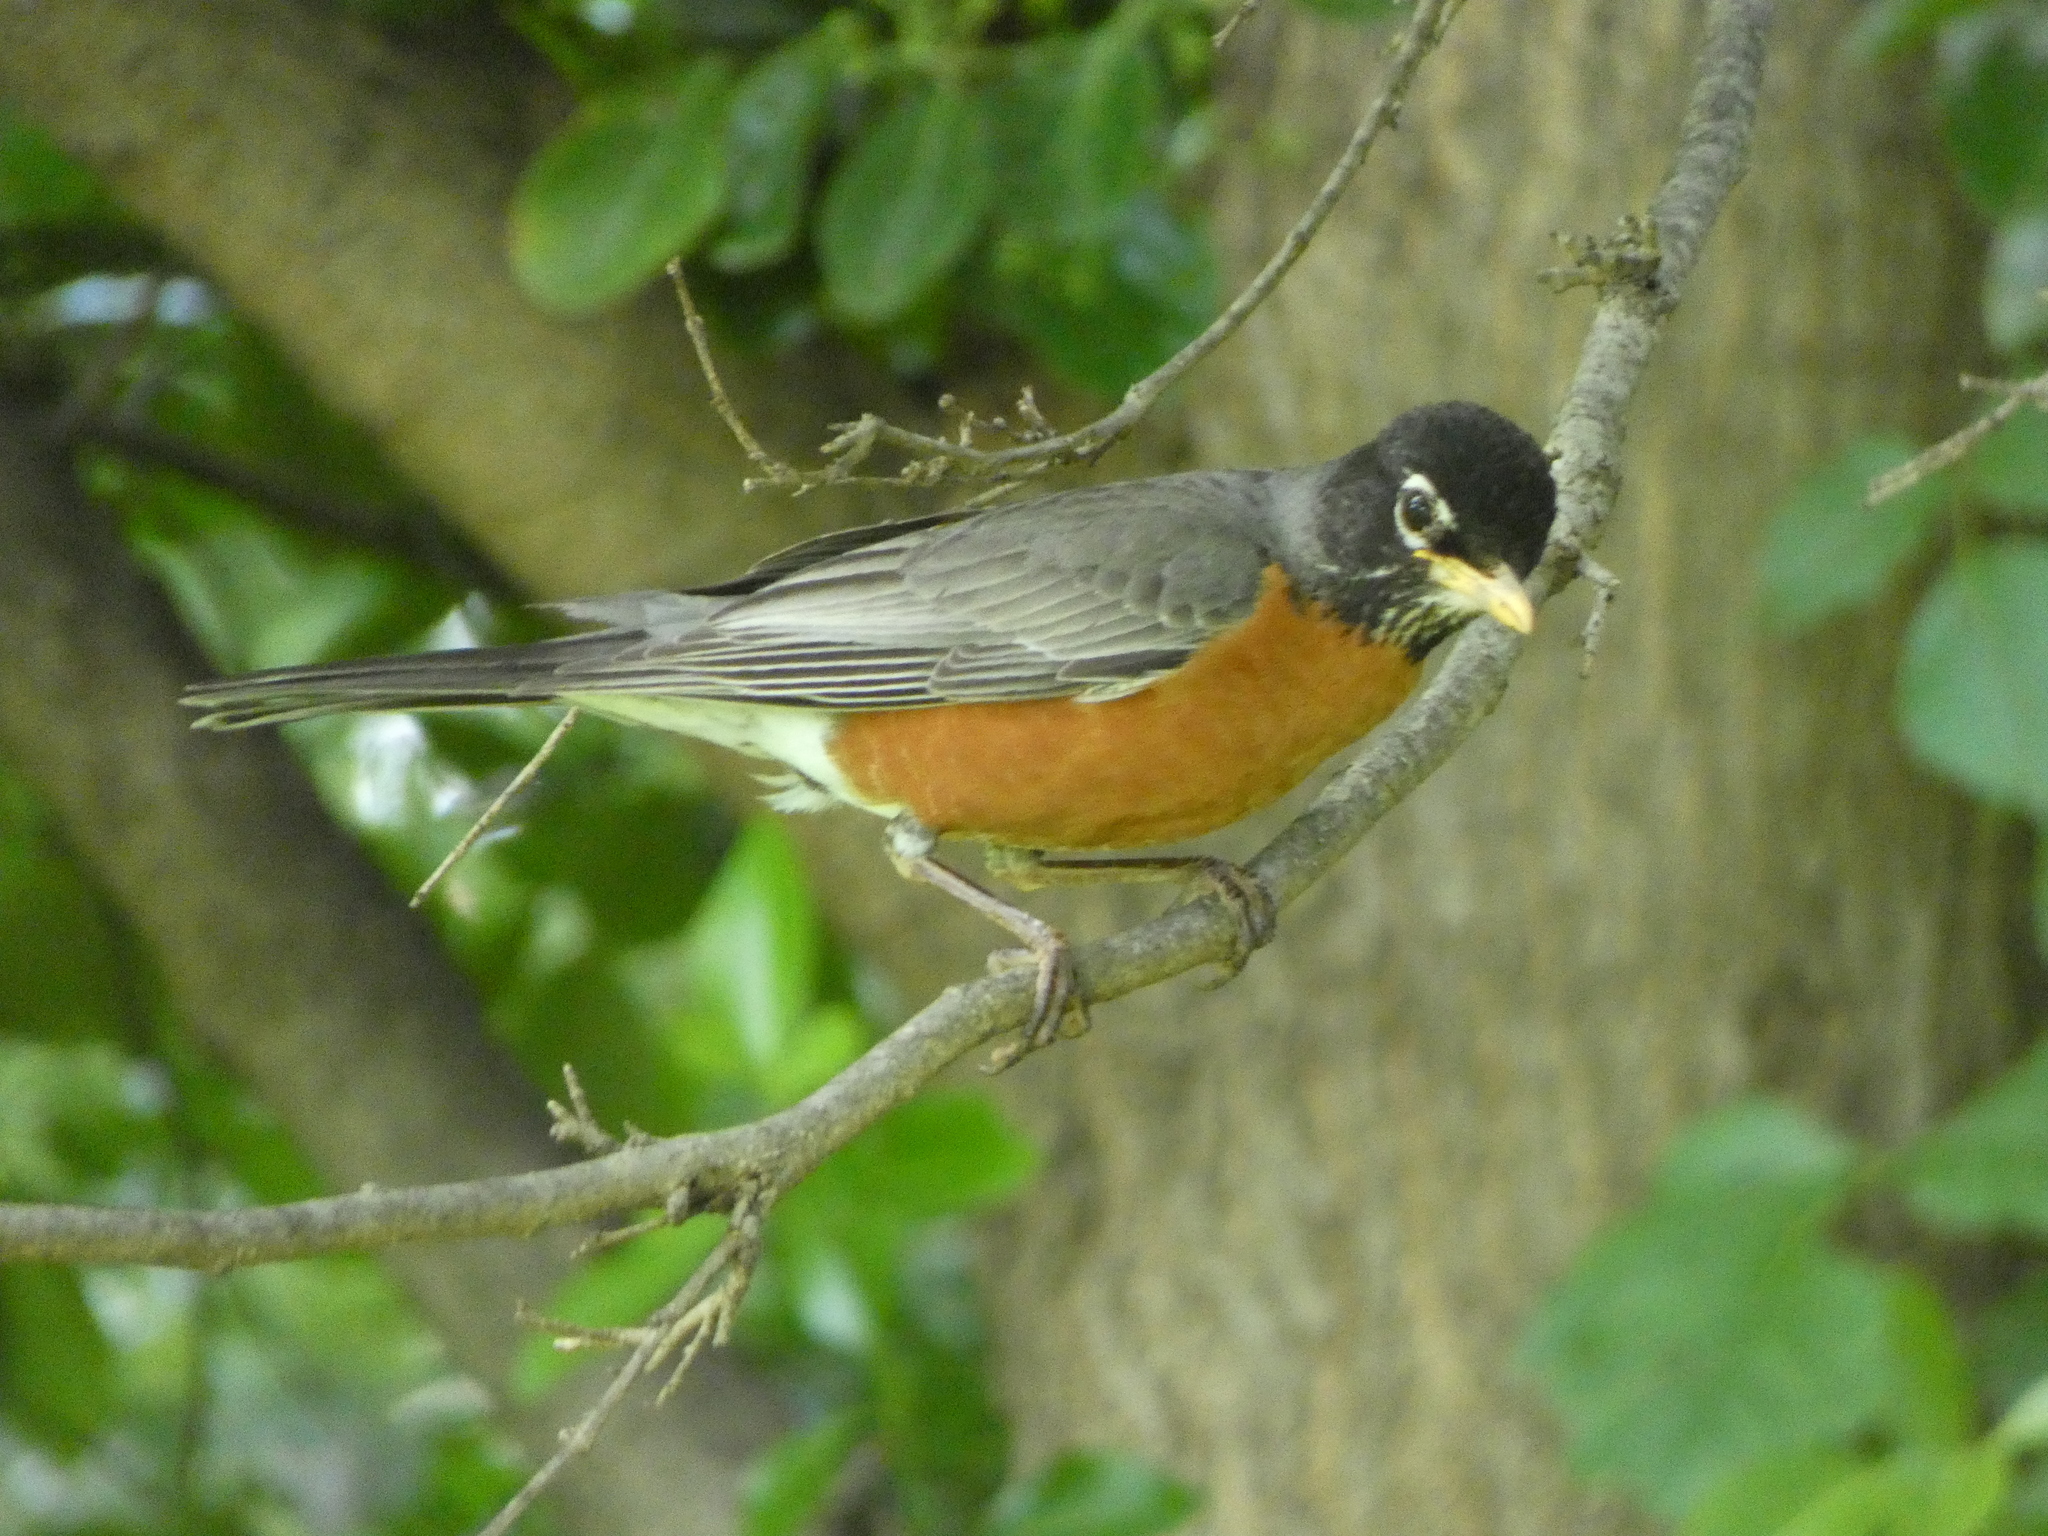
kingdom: Animalia
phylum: Chordata
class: Aves
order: Passeriformes
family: Turdidae
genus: Turdus
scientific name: Turdus migratorius
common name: American robin
